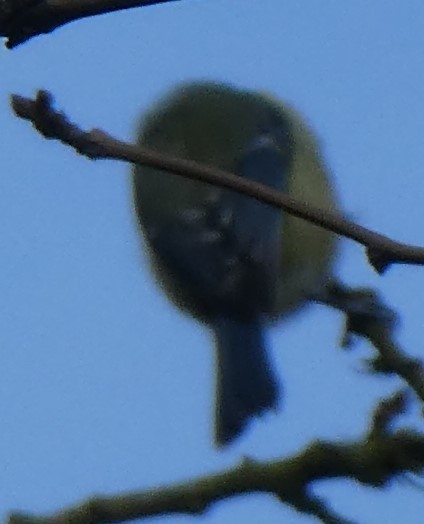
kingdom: Animalia
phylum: Chordata
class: Aves
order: Passeriformes
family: Paridae
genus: Cyanistes
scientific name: Cyanistes caeruleus
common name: Eurasian blue tit
